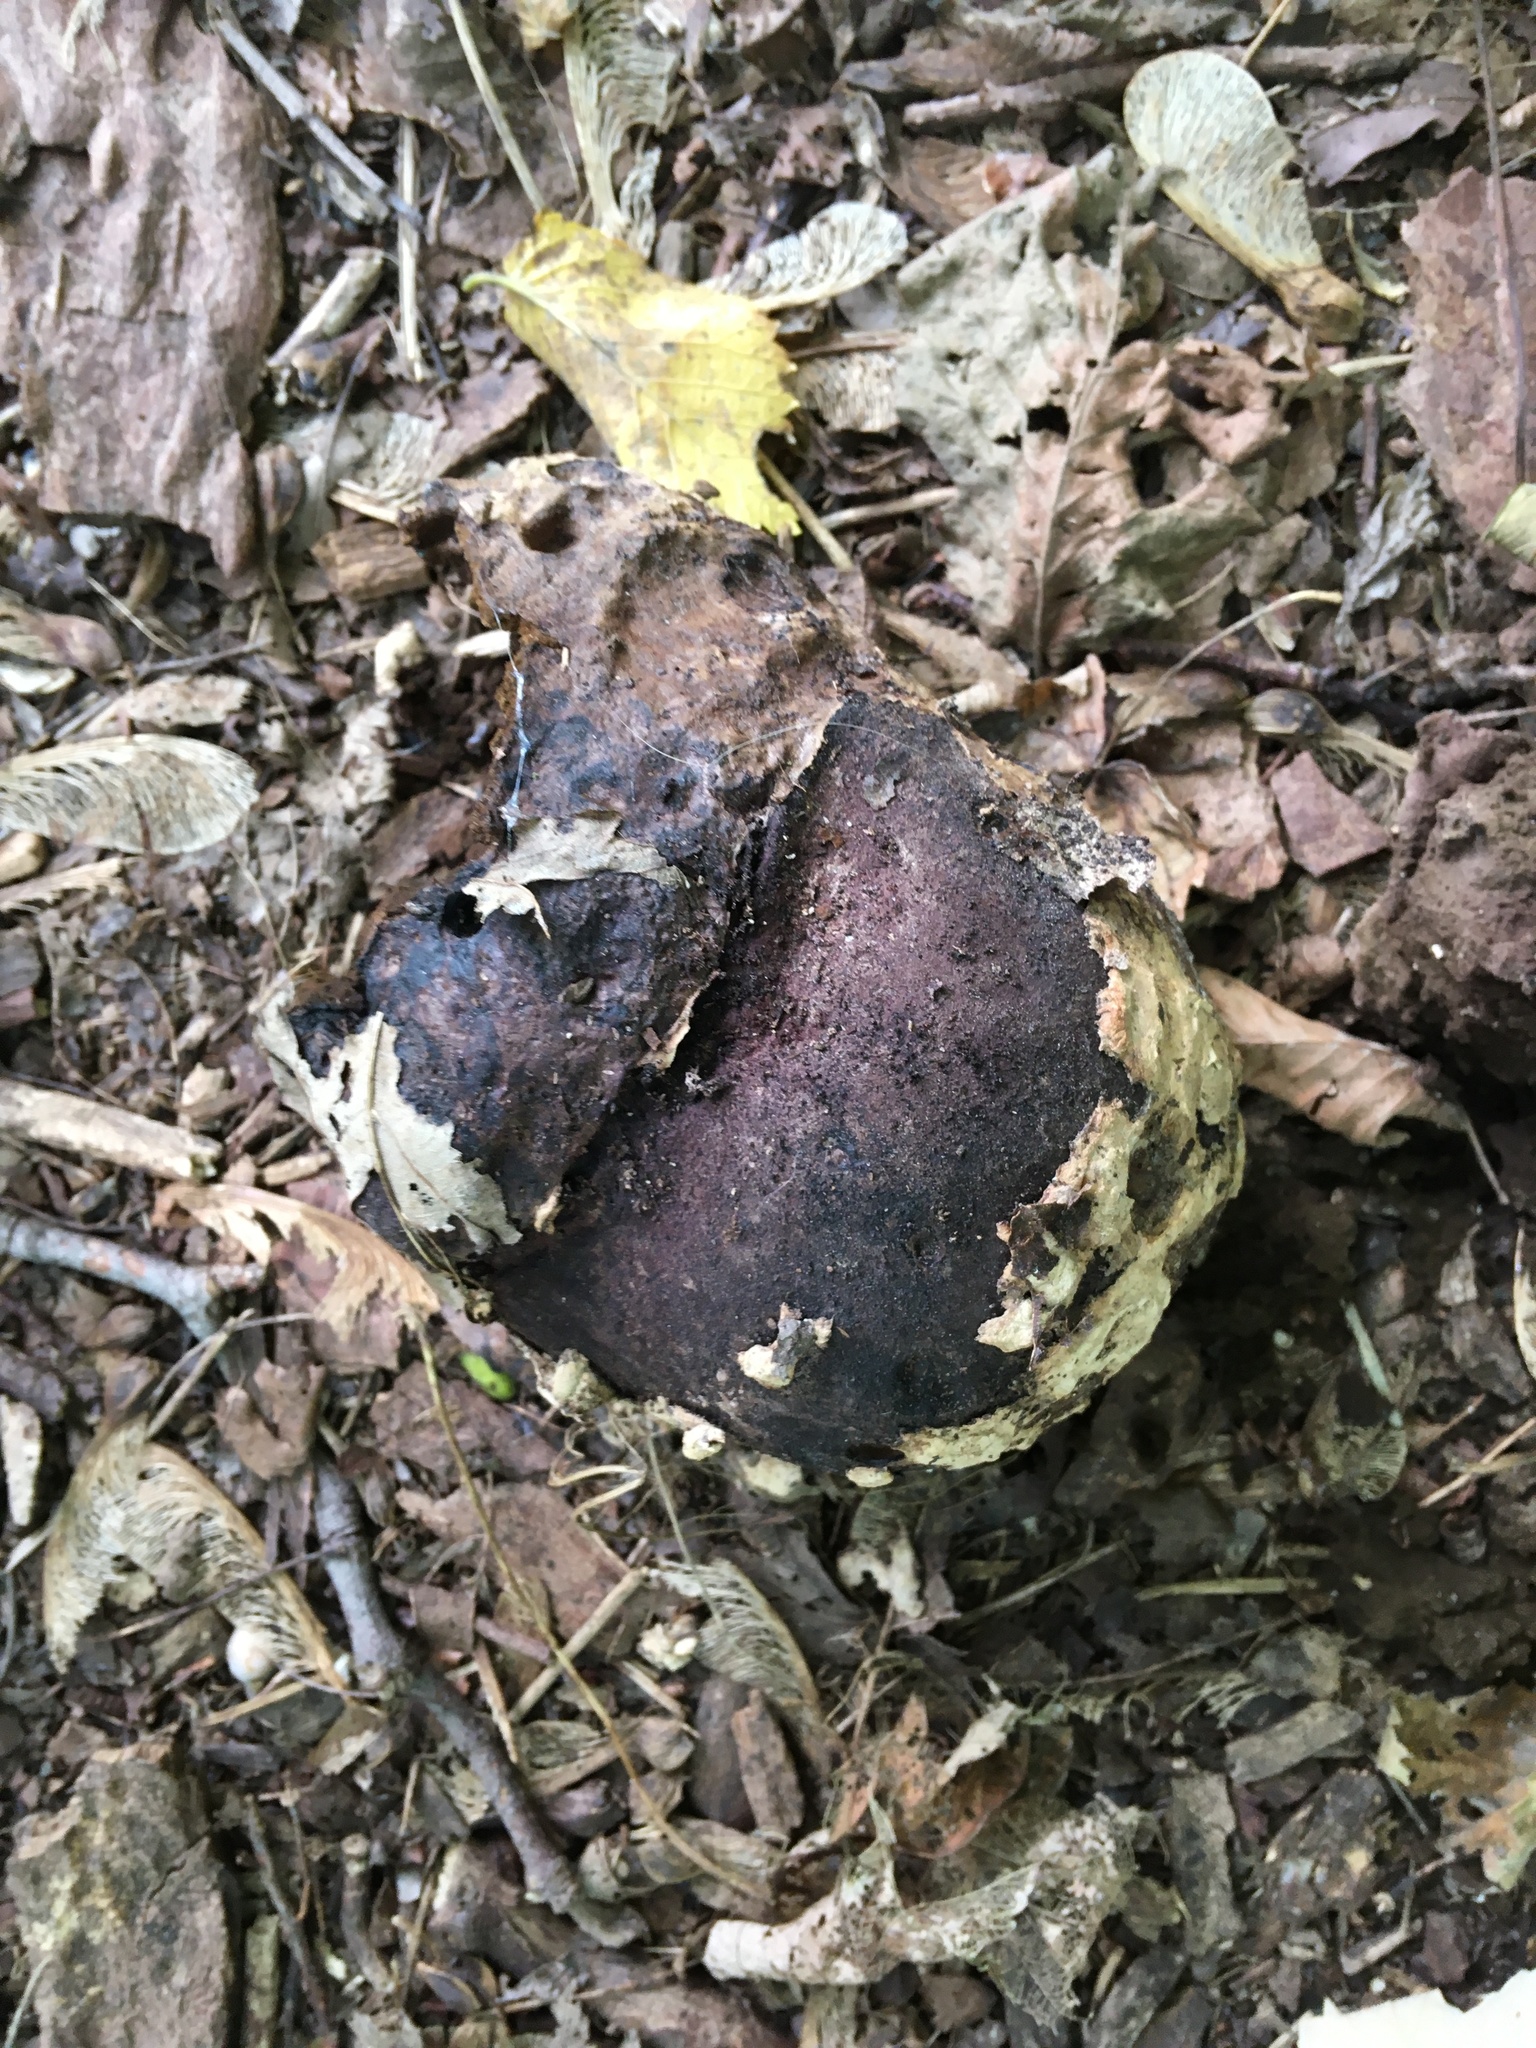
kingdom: Fungi
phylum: Basidiomycota
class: Agaricomycetes
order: Agaricales
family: Agaricaceae
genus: Mycenastrum
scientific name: Mycenastrum corium
